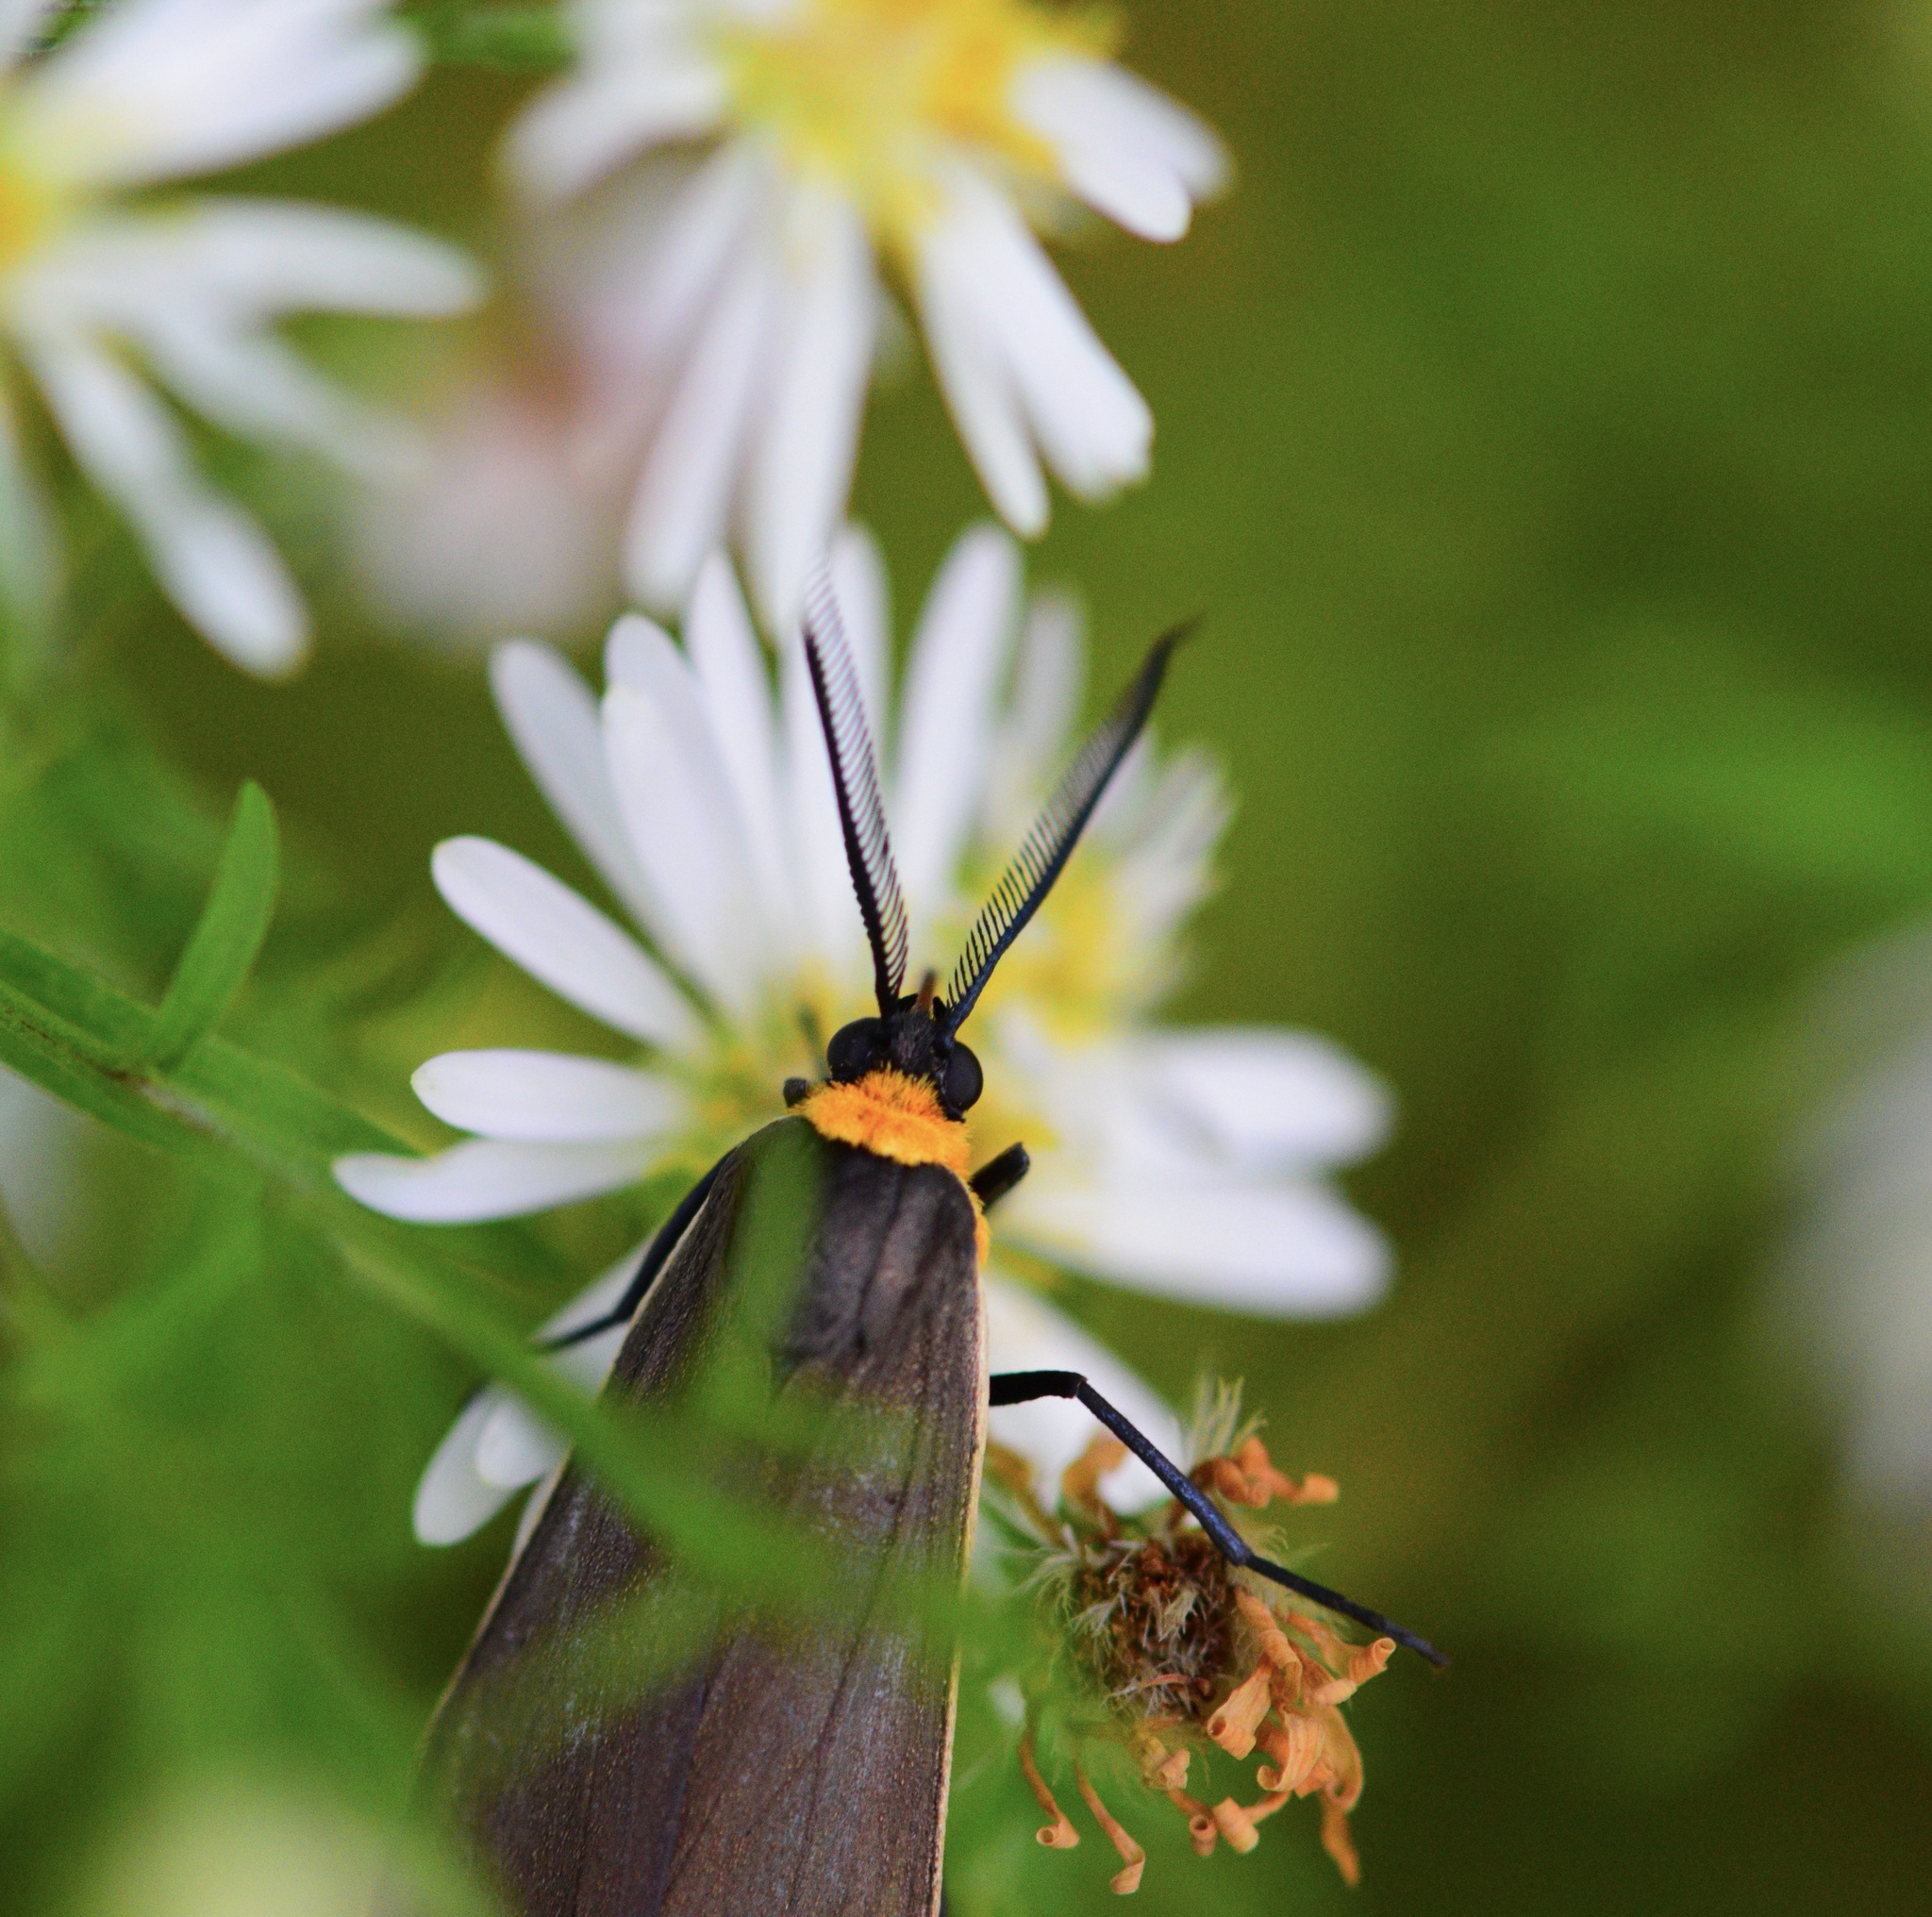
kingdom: Animalia
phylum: Arthropoda
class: Insecta
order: Lepidoptera
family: Erebidae
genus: Cisseps
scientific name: Cisseps fulvicollis
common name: Yellow-collared scape moth
